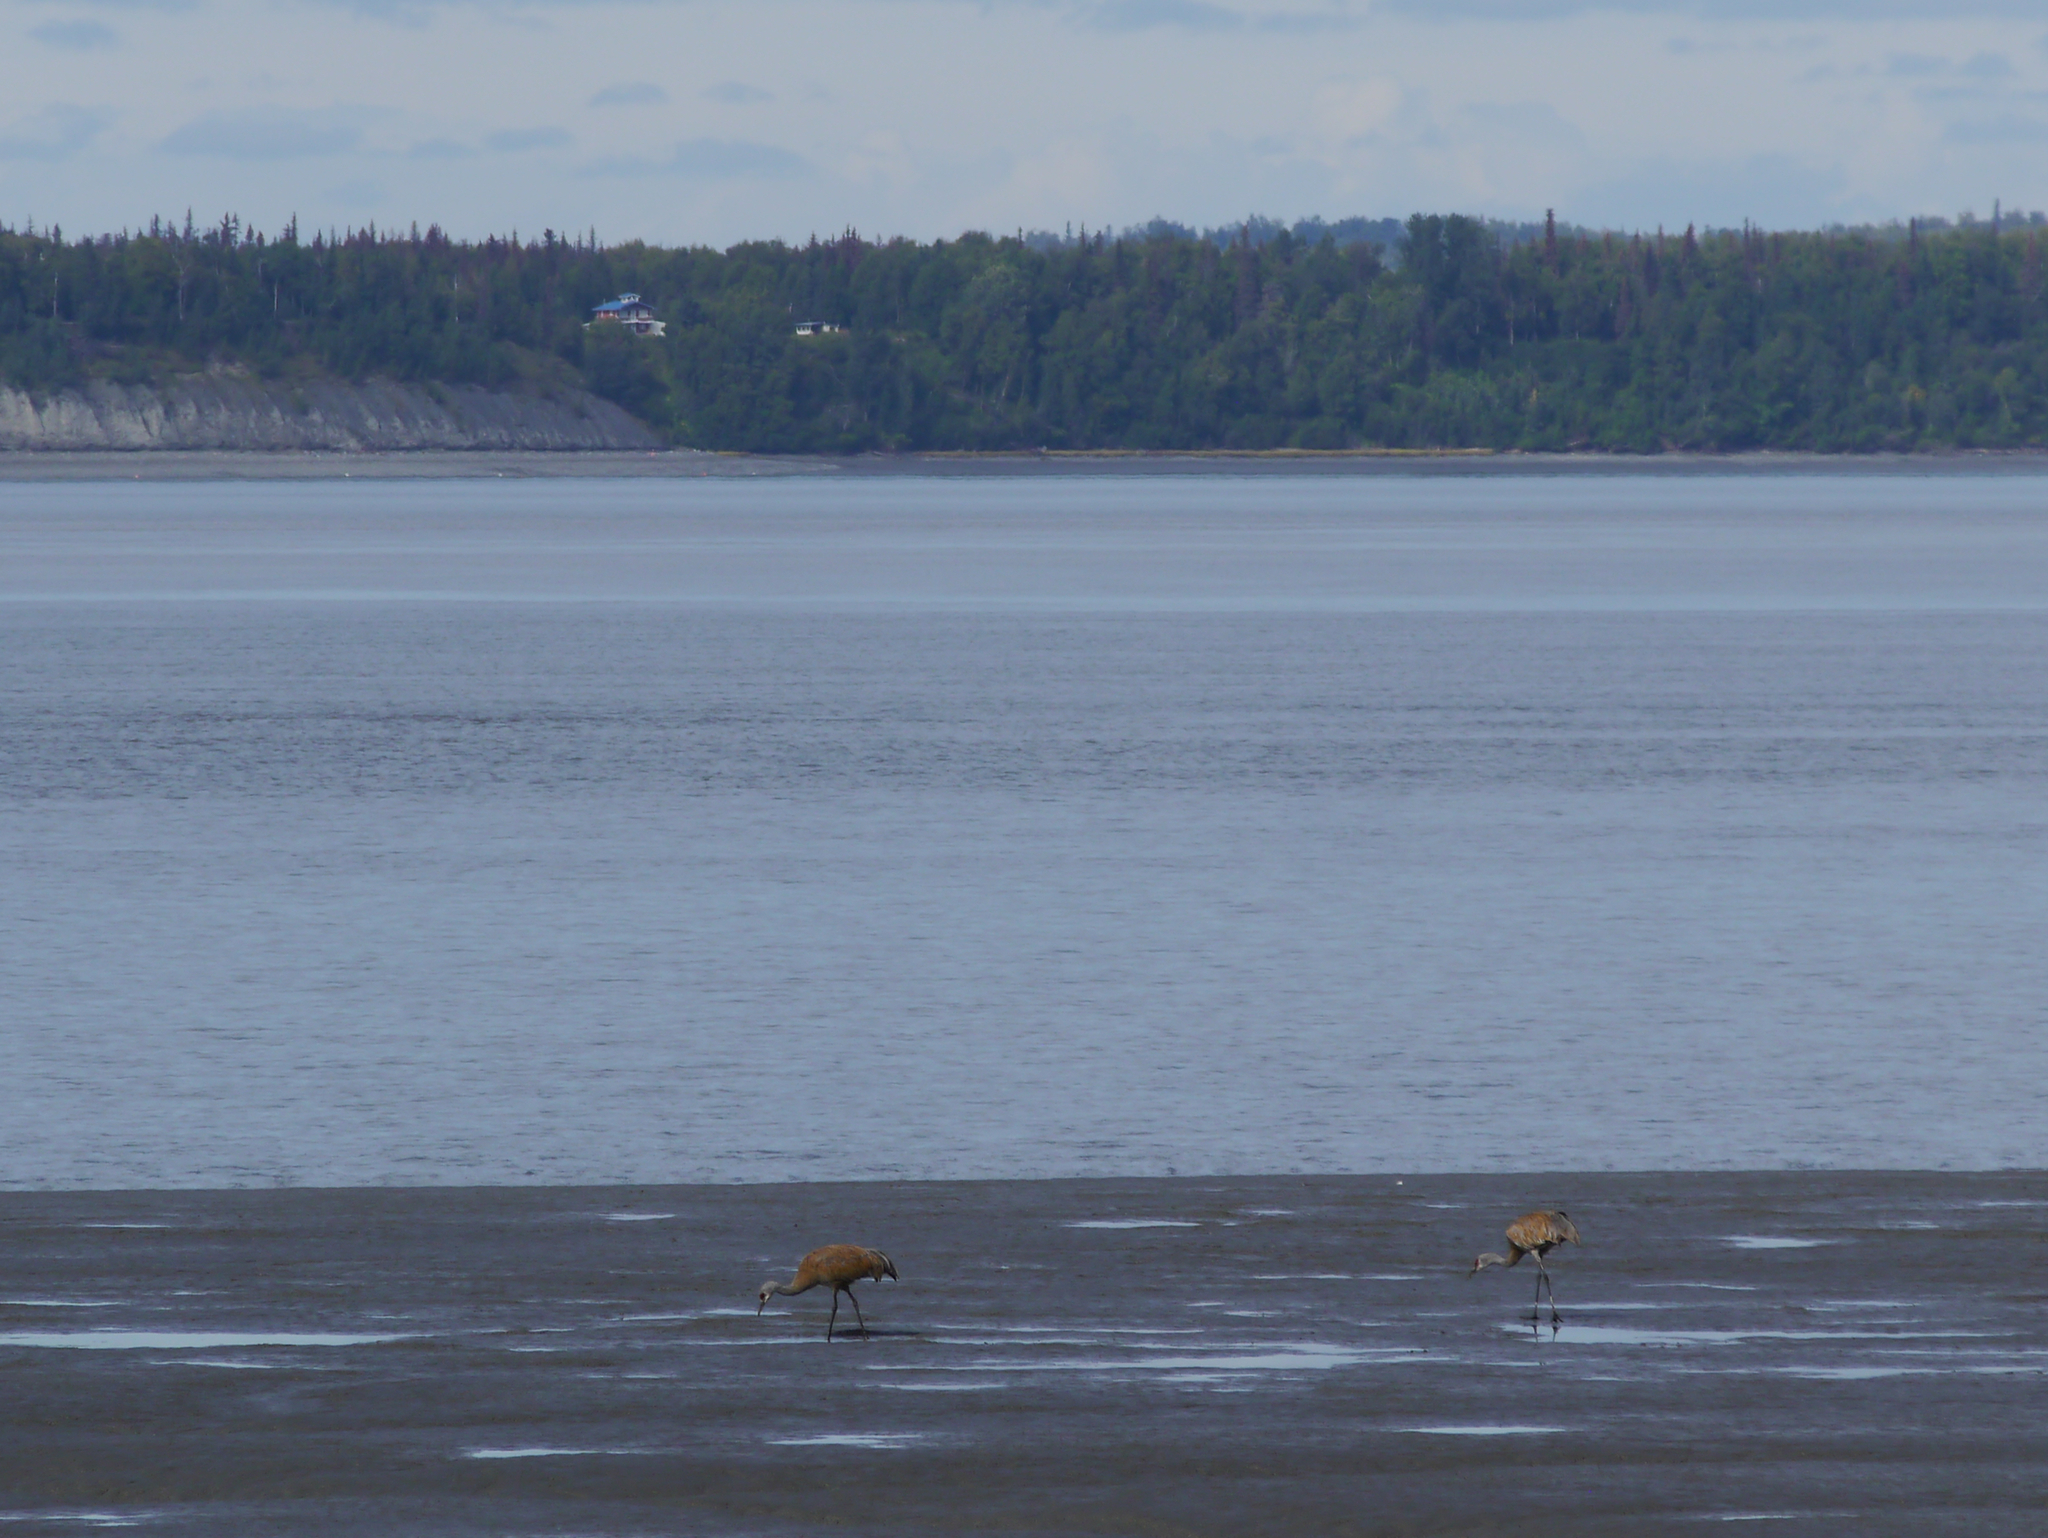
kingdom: Animalia
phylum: Chordata
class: Aves
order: Gruiformes
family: Gruidae
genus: Grus
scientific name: Grus canadensis
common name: Sandhill crane
